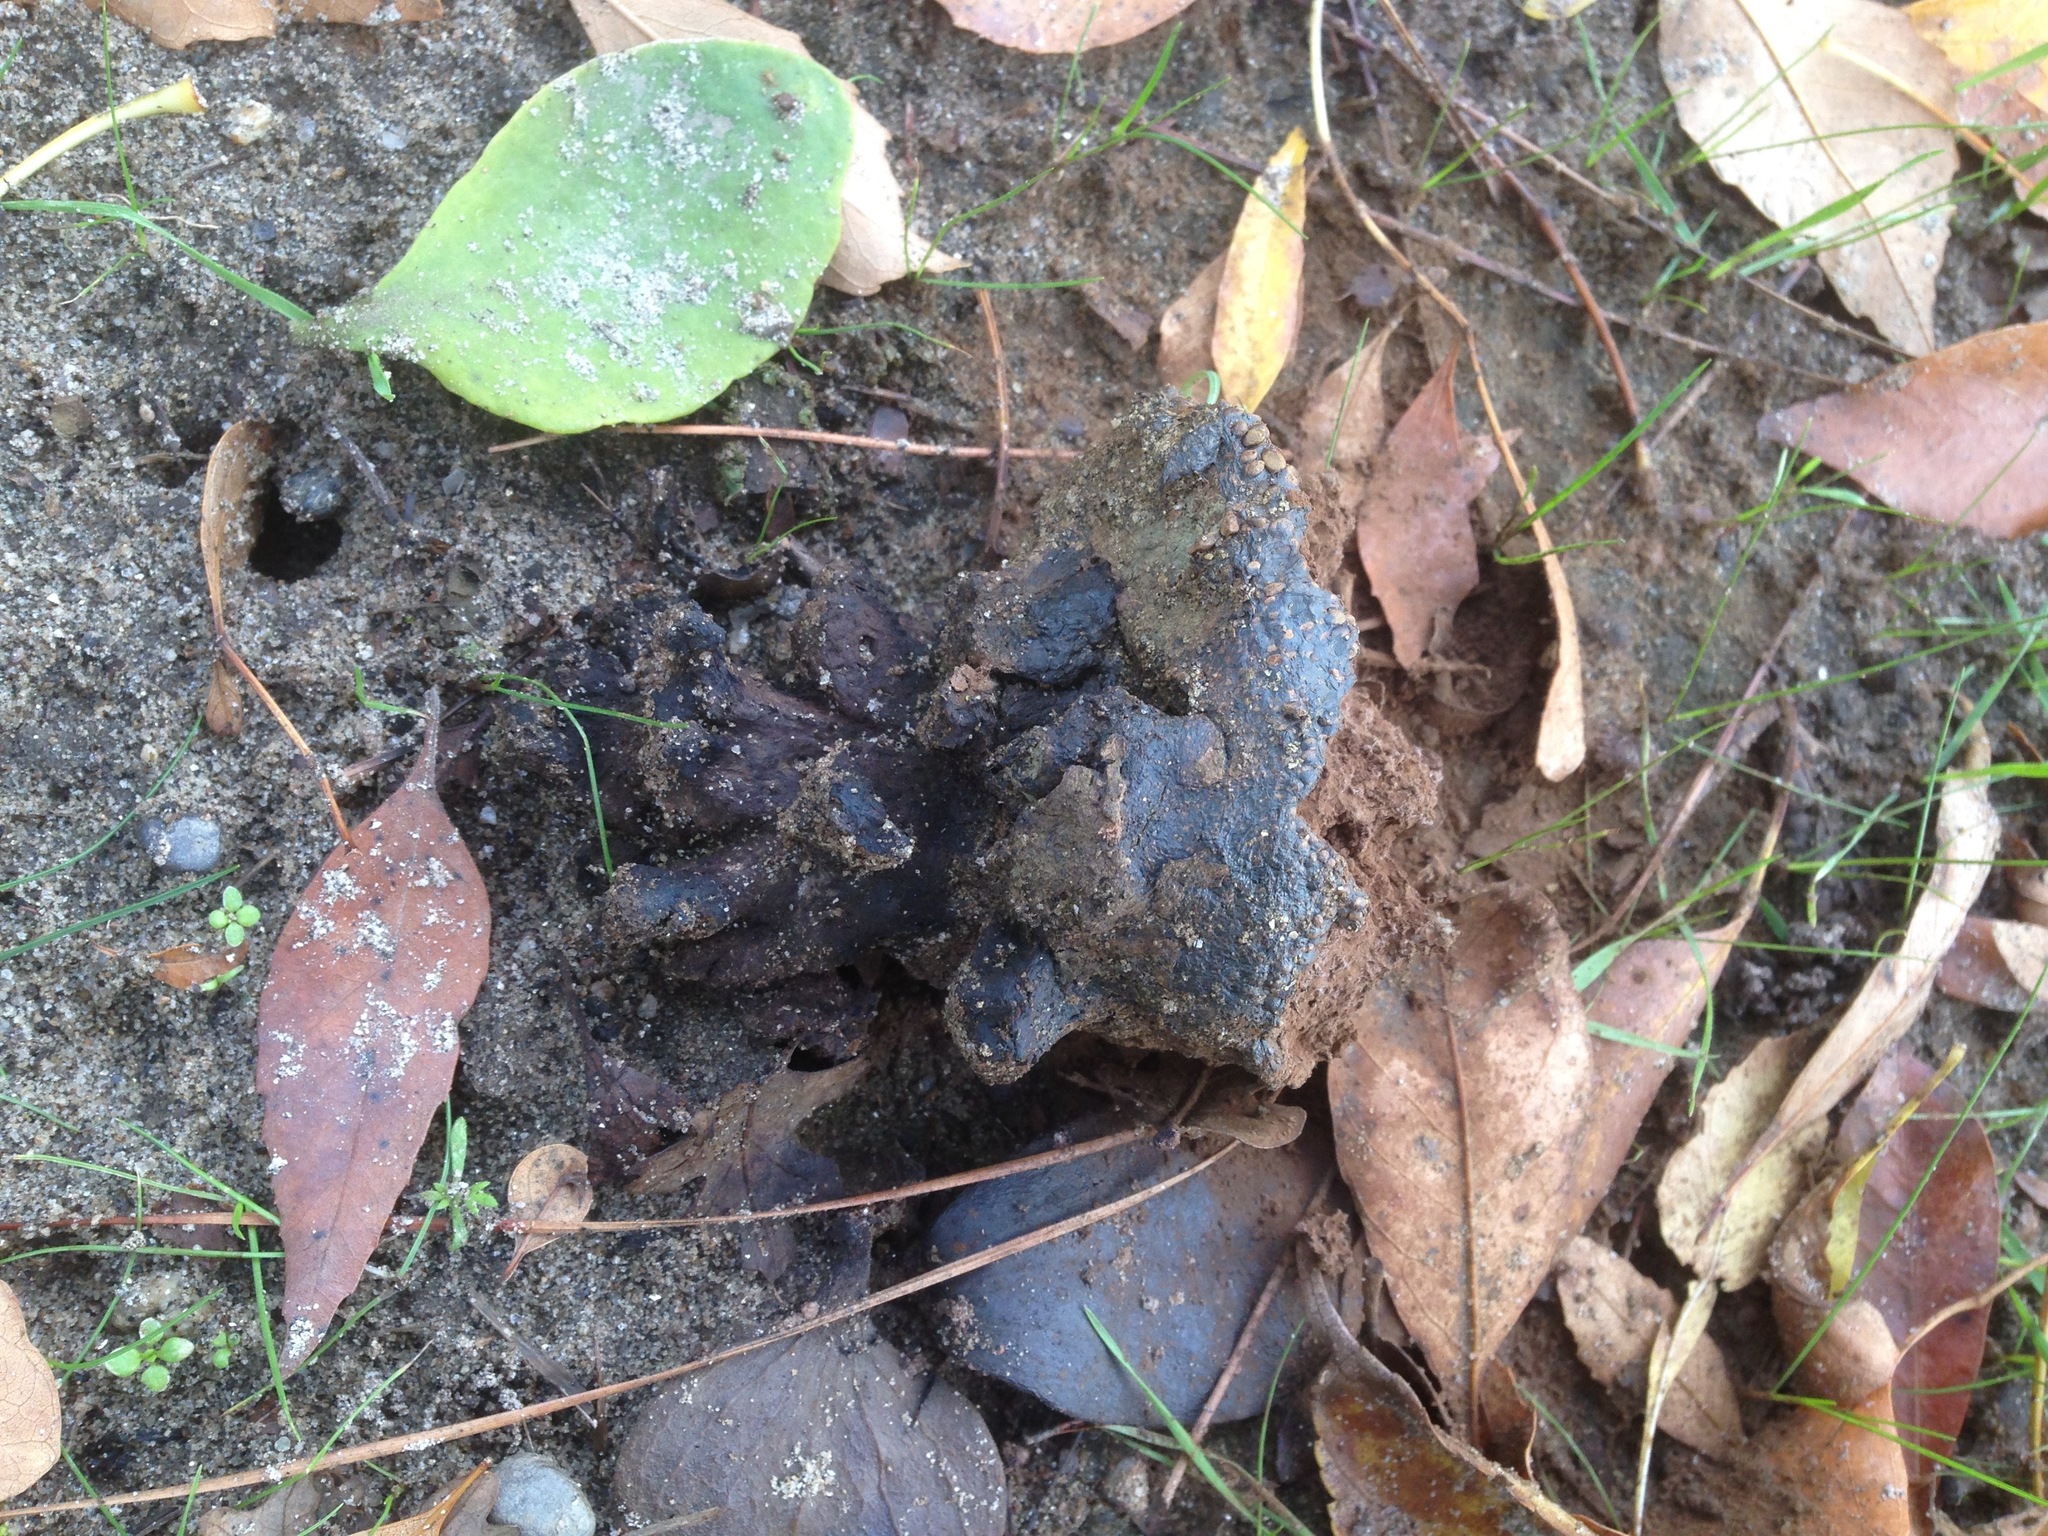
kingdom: Fungi
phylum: Basidiomycota
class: Agaricomycetes
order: Boletales
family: Sclerodermataceae
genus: Pisolithus
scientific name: Pisolithus arhizus
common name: Dyeball
